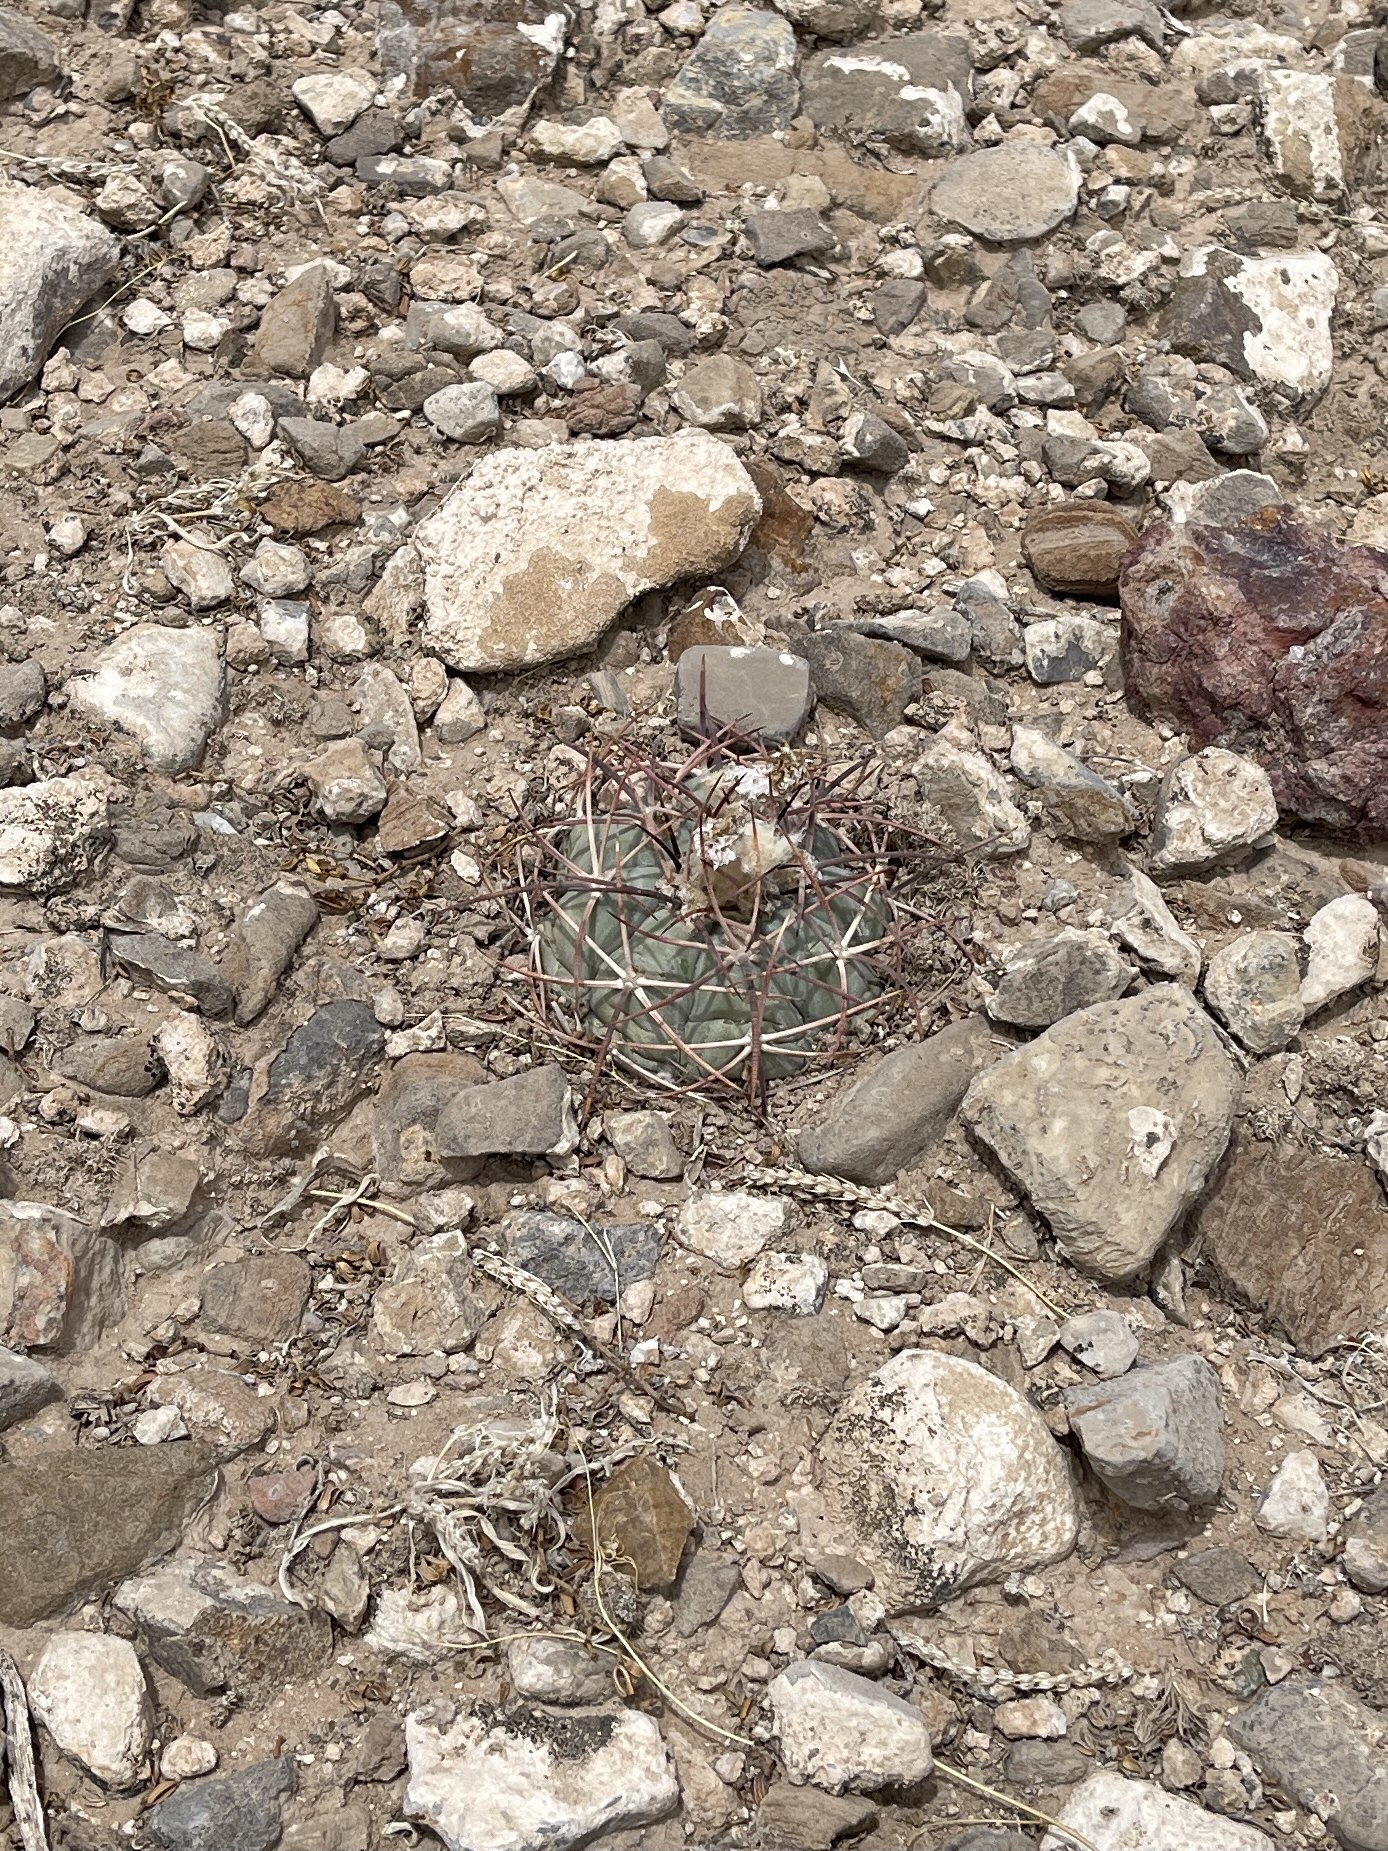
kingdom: Plantae
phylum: Tracheophyta
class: Magnoliopsida
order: Caryophyllales
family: Cactaceae
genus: Echinocactus
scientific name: Echinocactus horizonthalonius
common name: Devilshead
